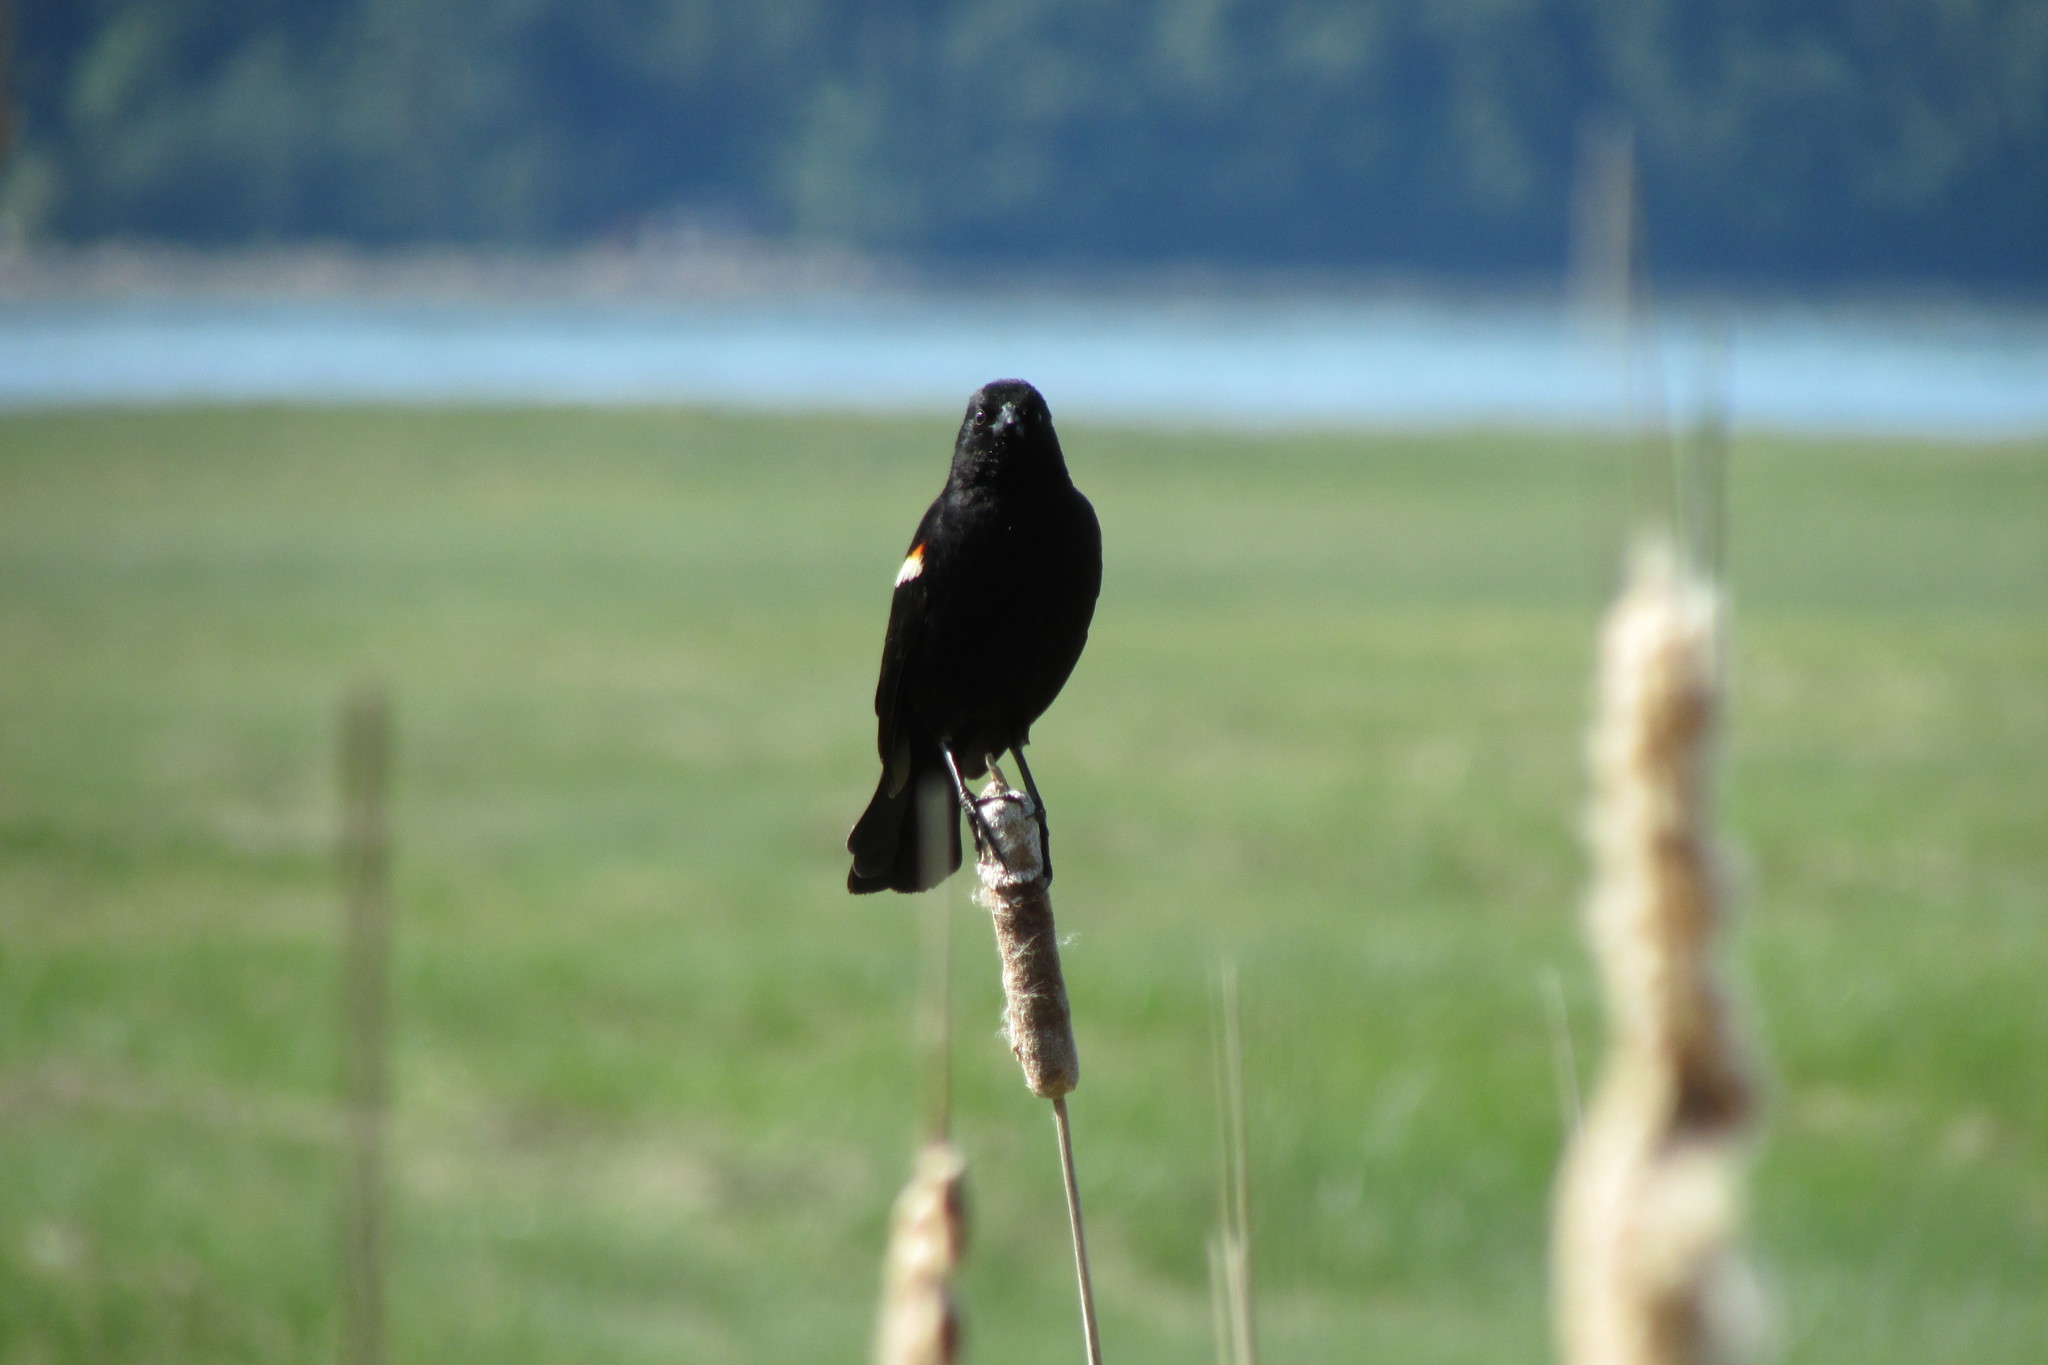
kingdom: Animalia
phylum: Chordata
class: Aves
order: Passeriformes
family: Icteridae
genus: Agelaius
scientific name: Agelaius phoeniceus
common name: Red-winged blackbird
